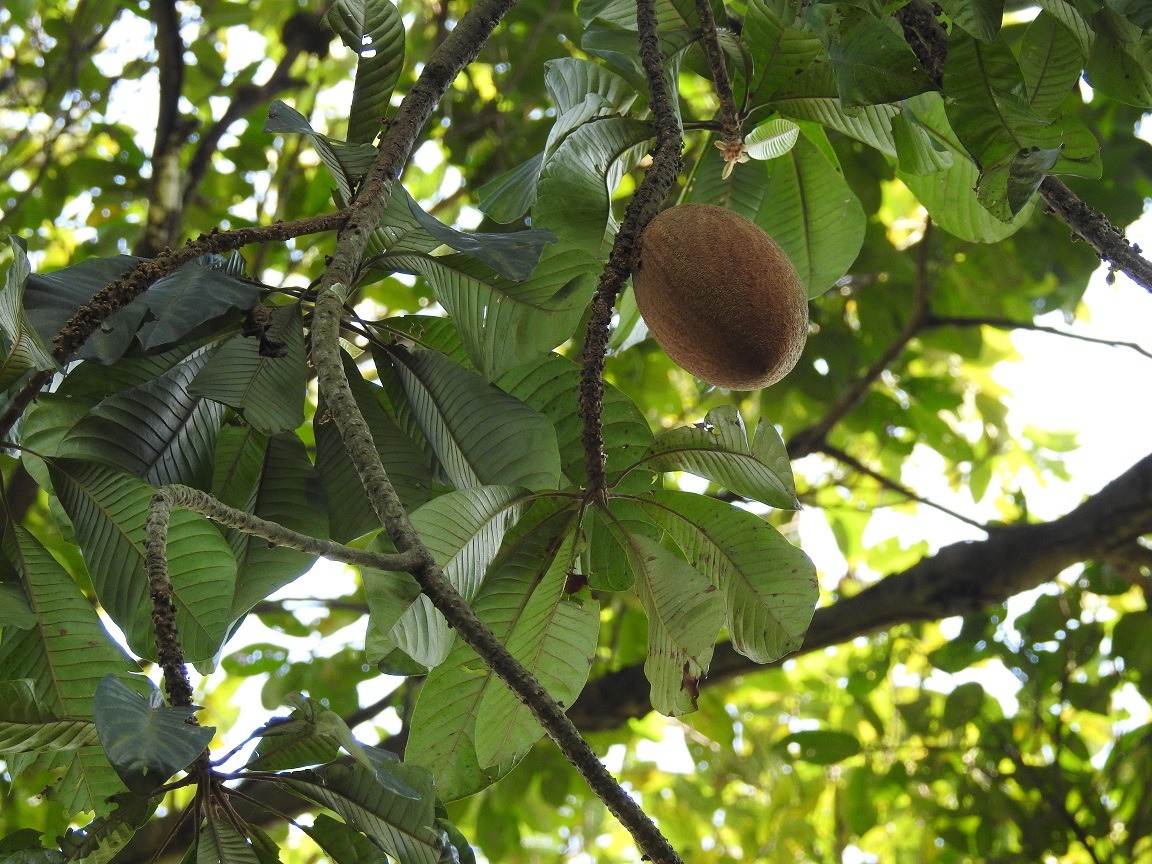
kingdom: Plantae
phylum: Tracheophyta
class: Magnoliopsida
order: Ericales
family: Sapotaceae
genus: Pouteria
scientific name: Pouteria sapota
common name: Mamey
